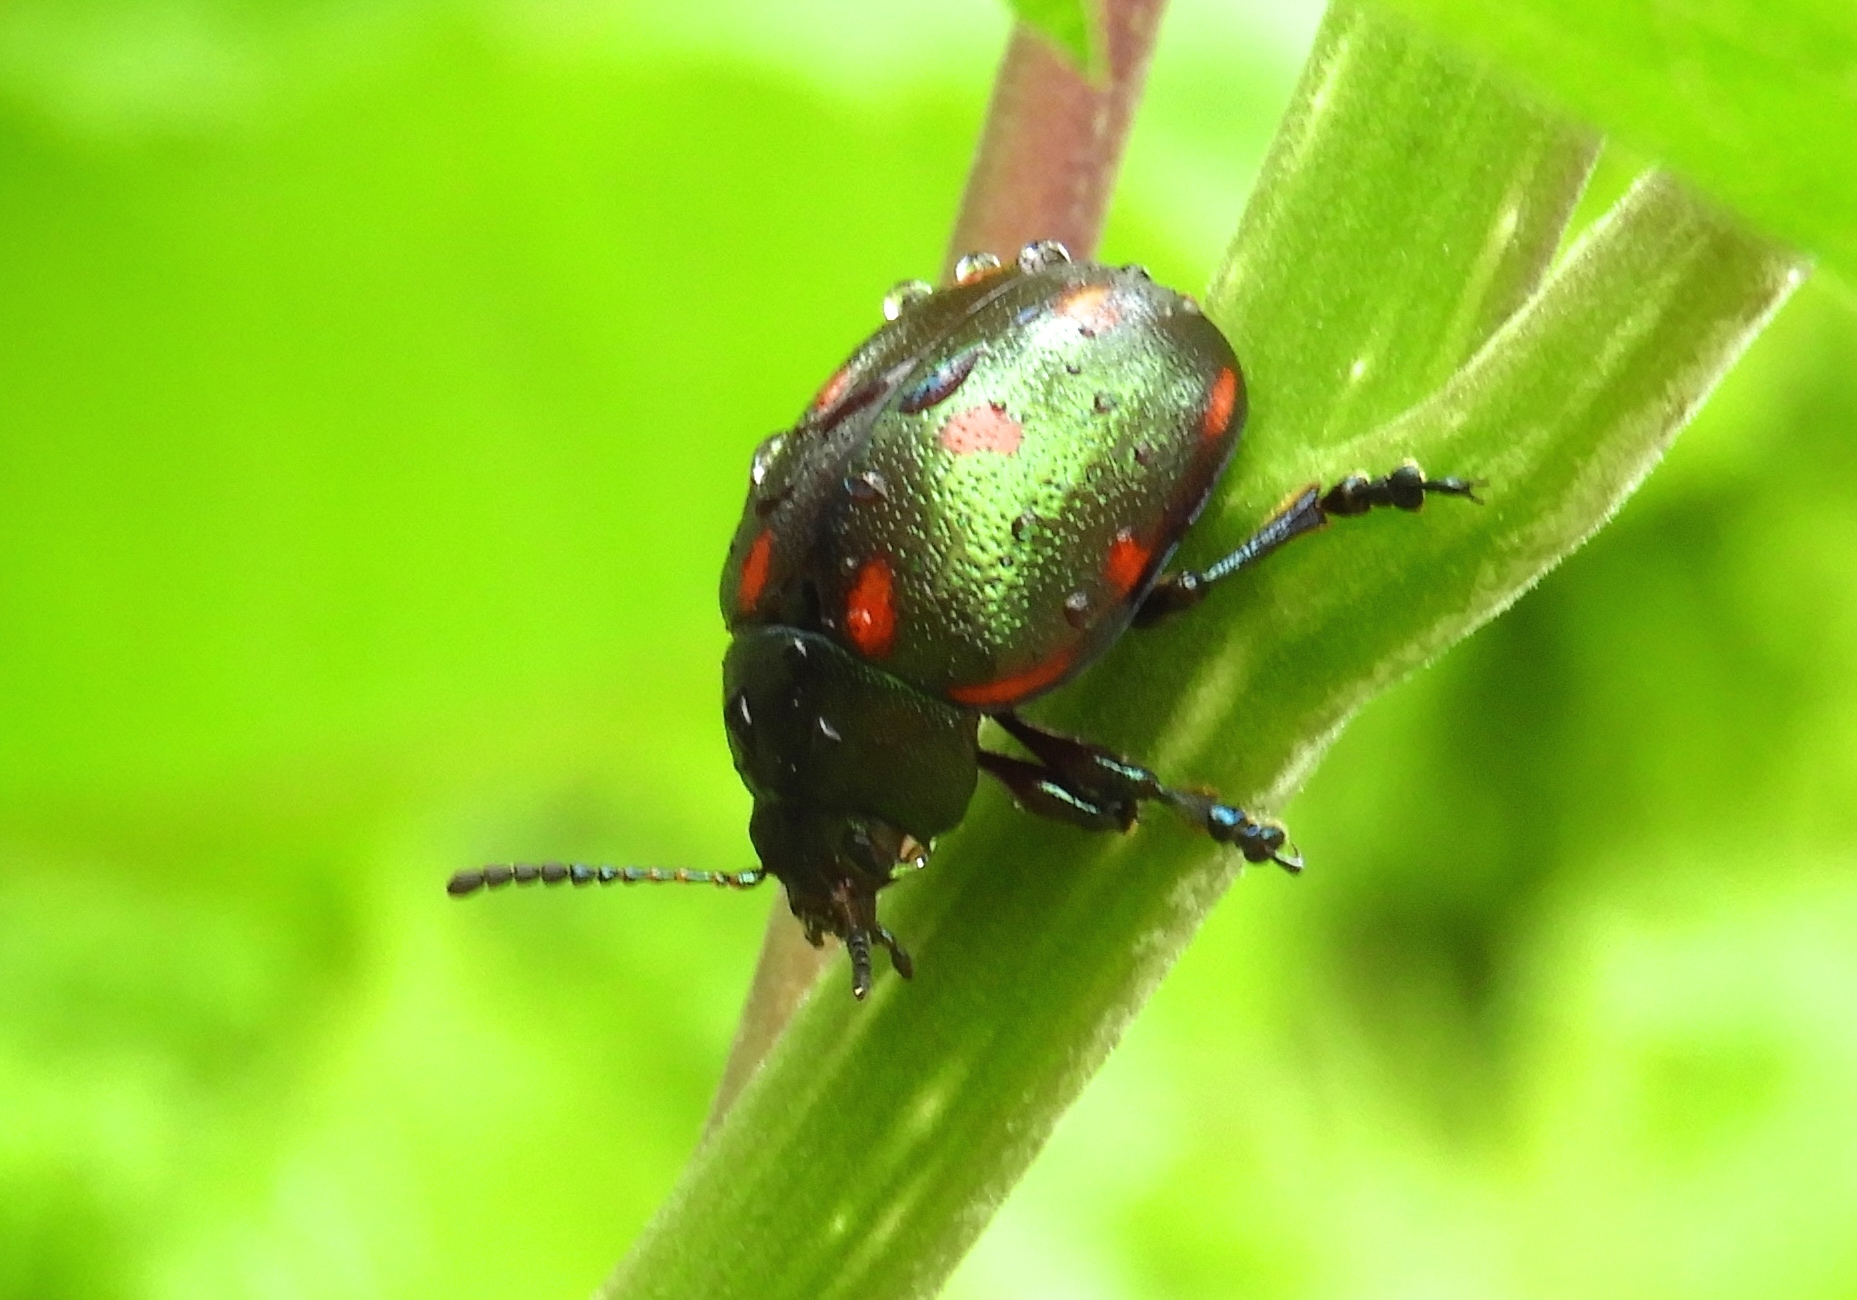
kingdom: Animalia
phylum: Arthropoda
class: Insecta
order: Coleoptera
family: Chrysomelidae
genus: Leptinotarsa
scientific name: Leptinotarsa behrensi
